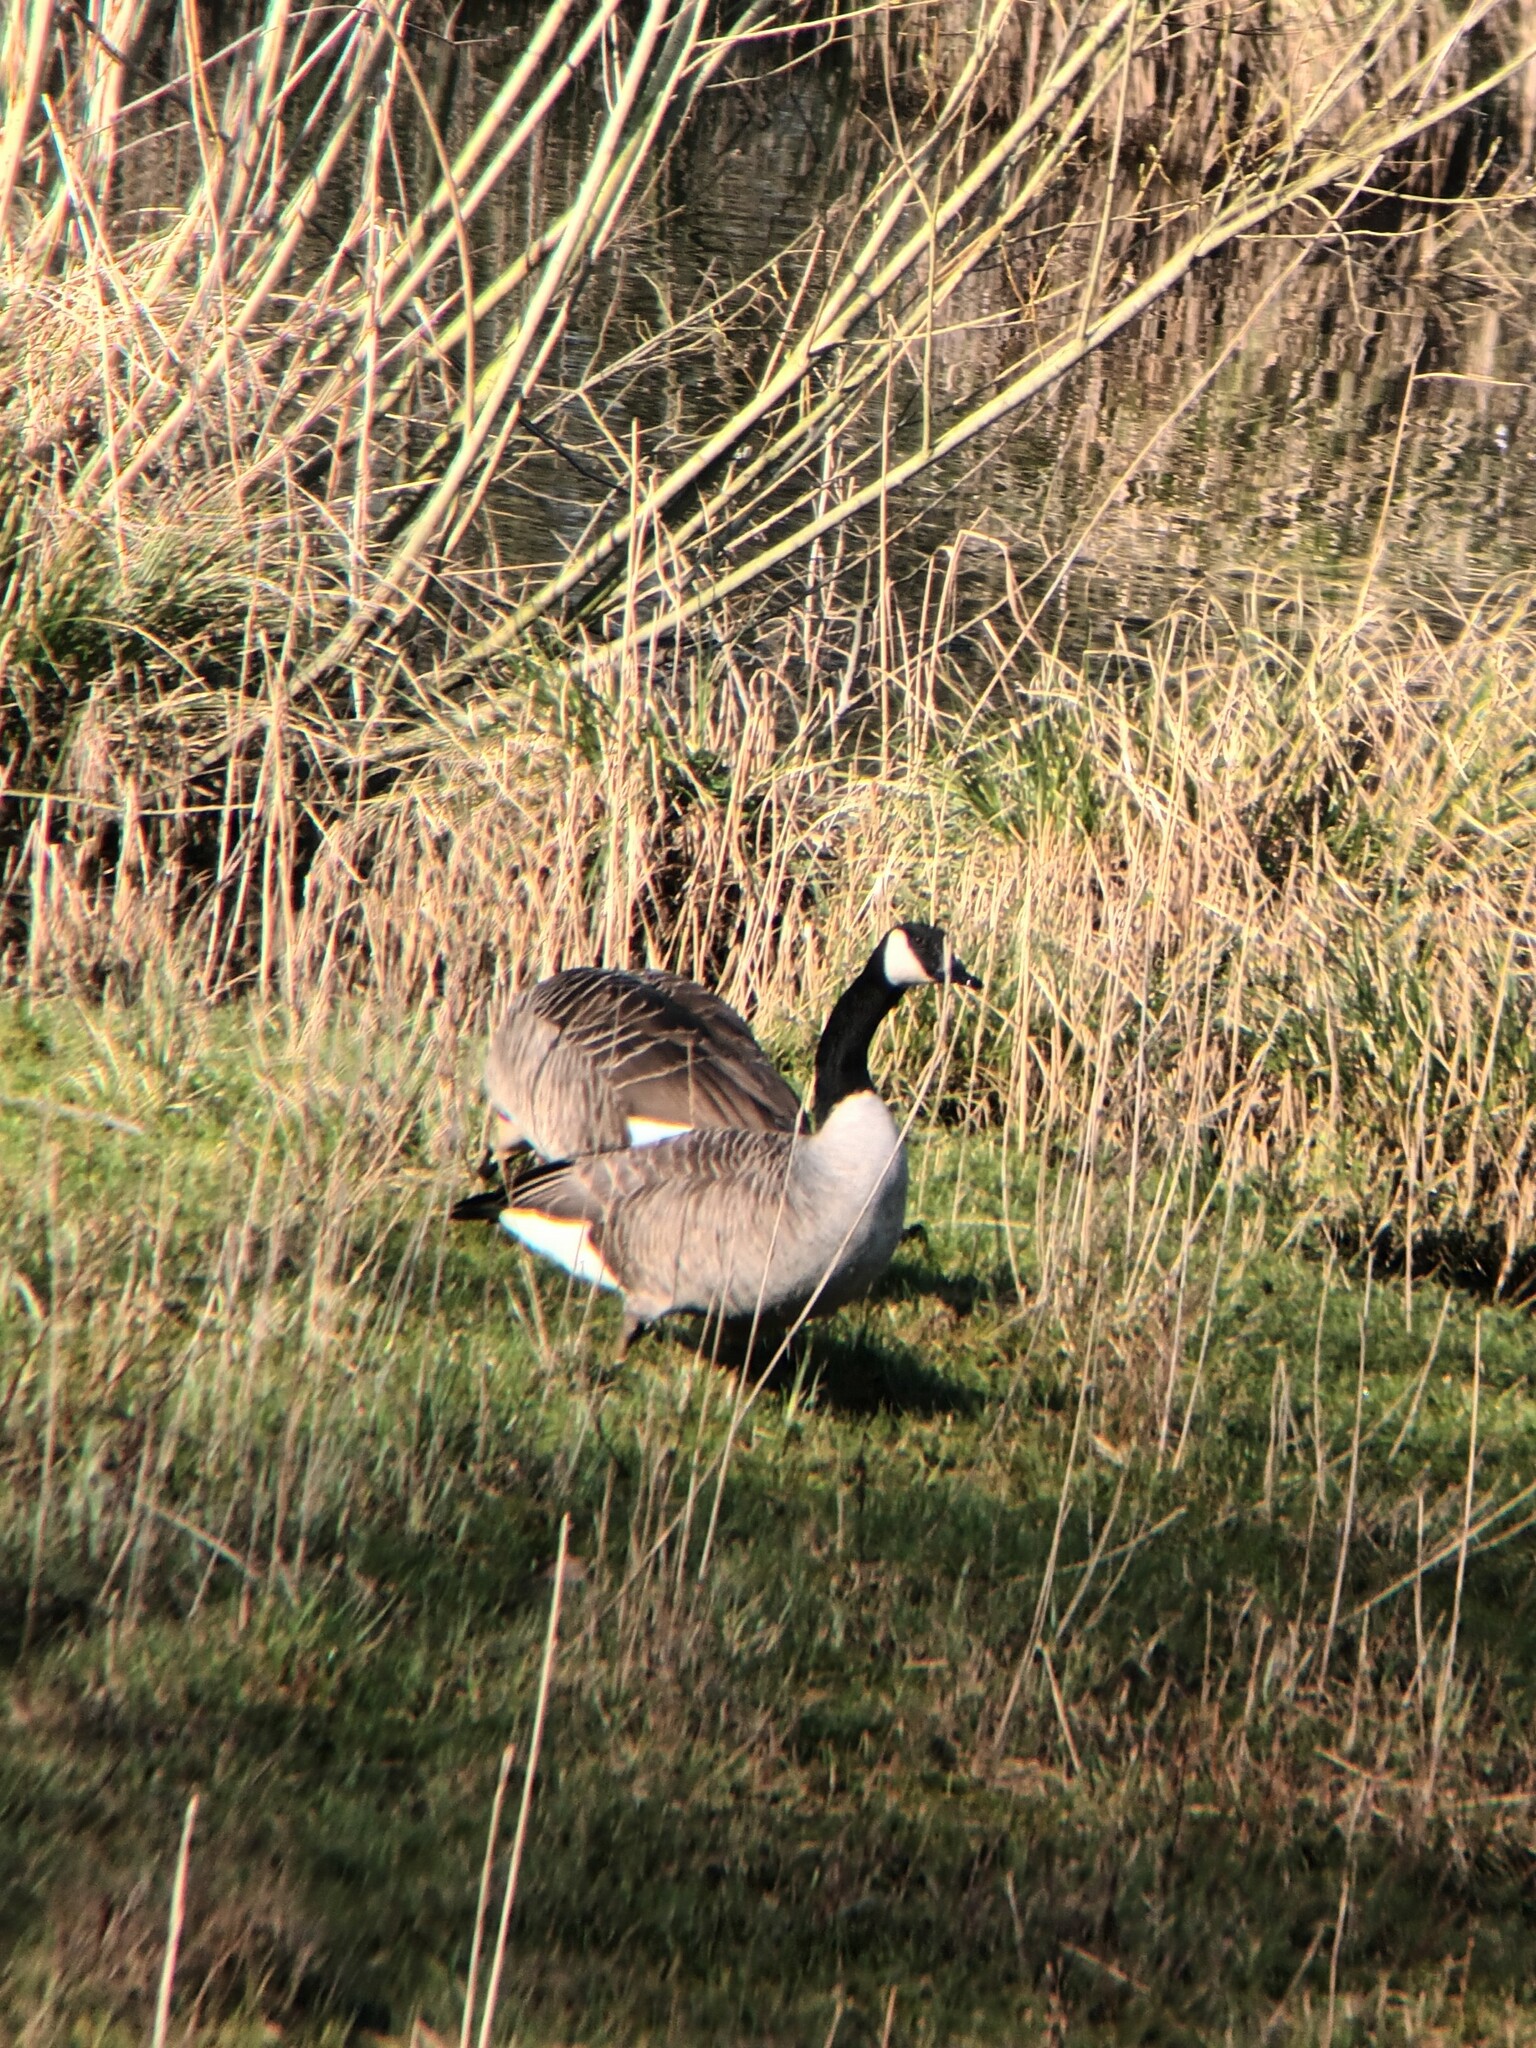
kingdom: Animalia
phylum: Chordata
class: Aves
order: Anseriformes
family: Anatidae
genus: Branta
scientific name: Branta canadensis
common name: Canada goose
